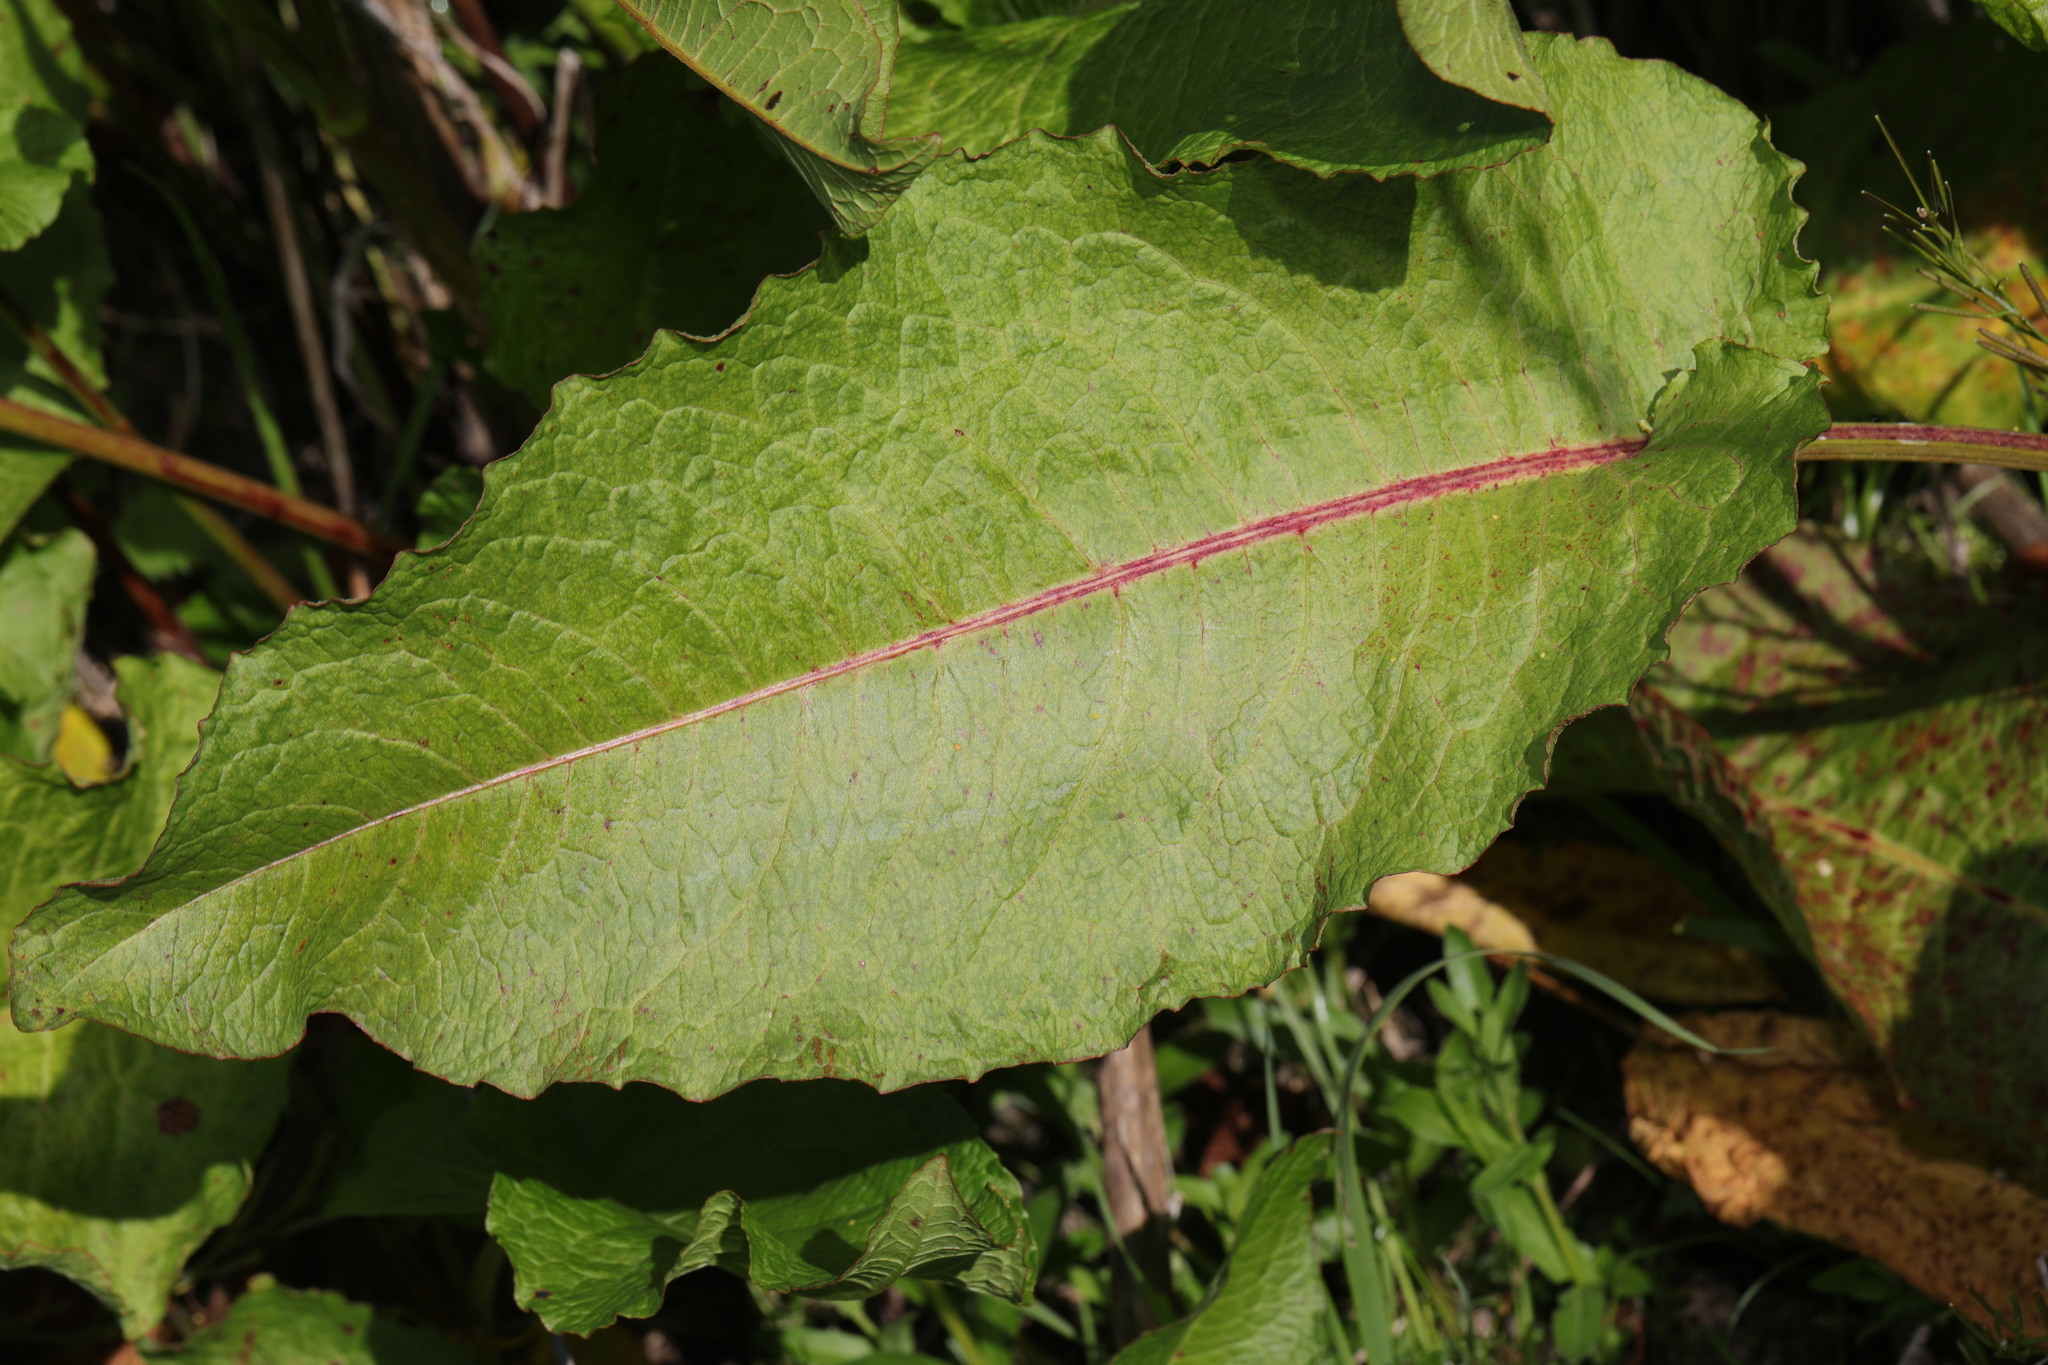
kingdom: Plantae
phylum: Tracheophyta
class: Magnoliopsida
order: Caryophyllales
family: Polygonaceae
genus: Rumex
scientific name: Rumex obtusifolius
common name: Bitter dock
